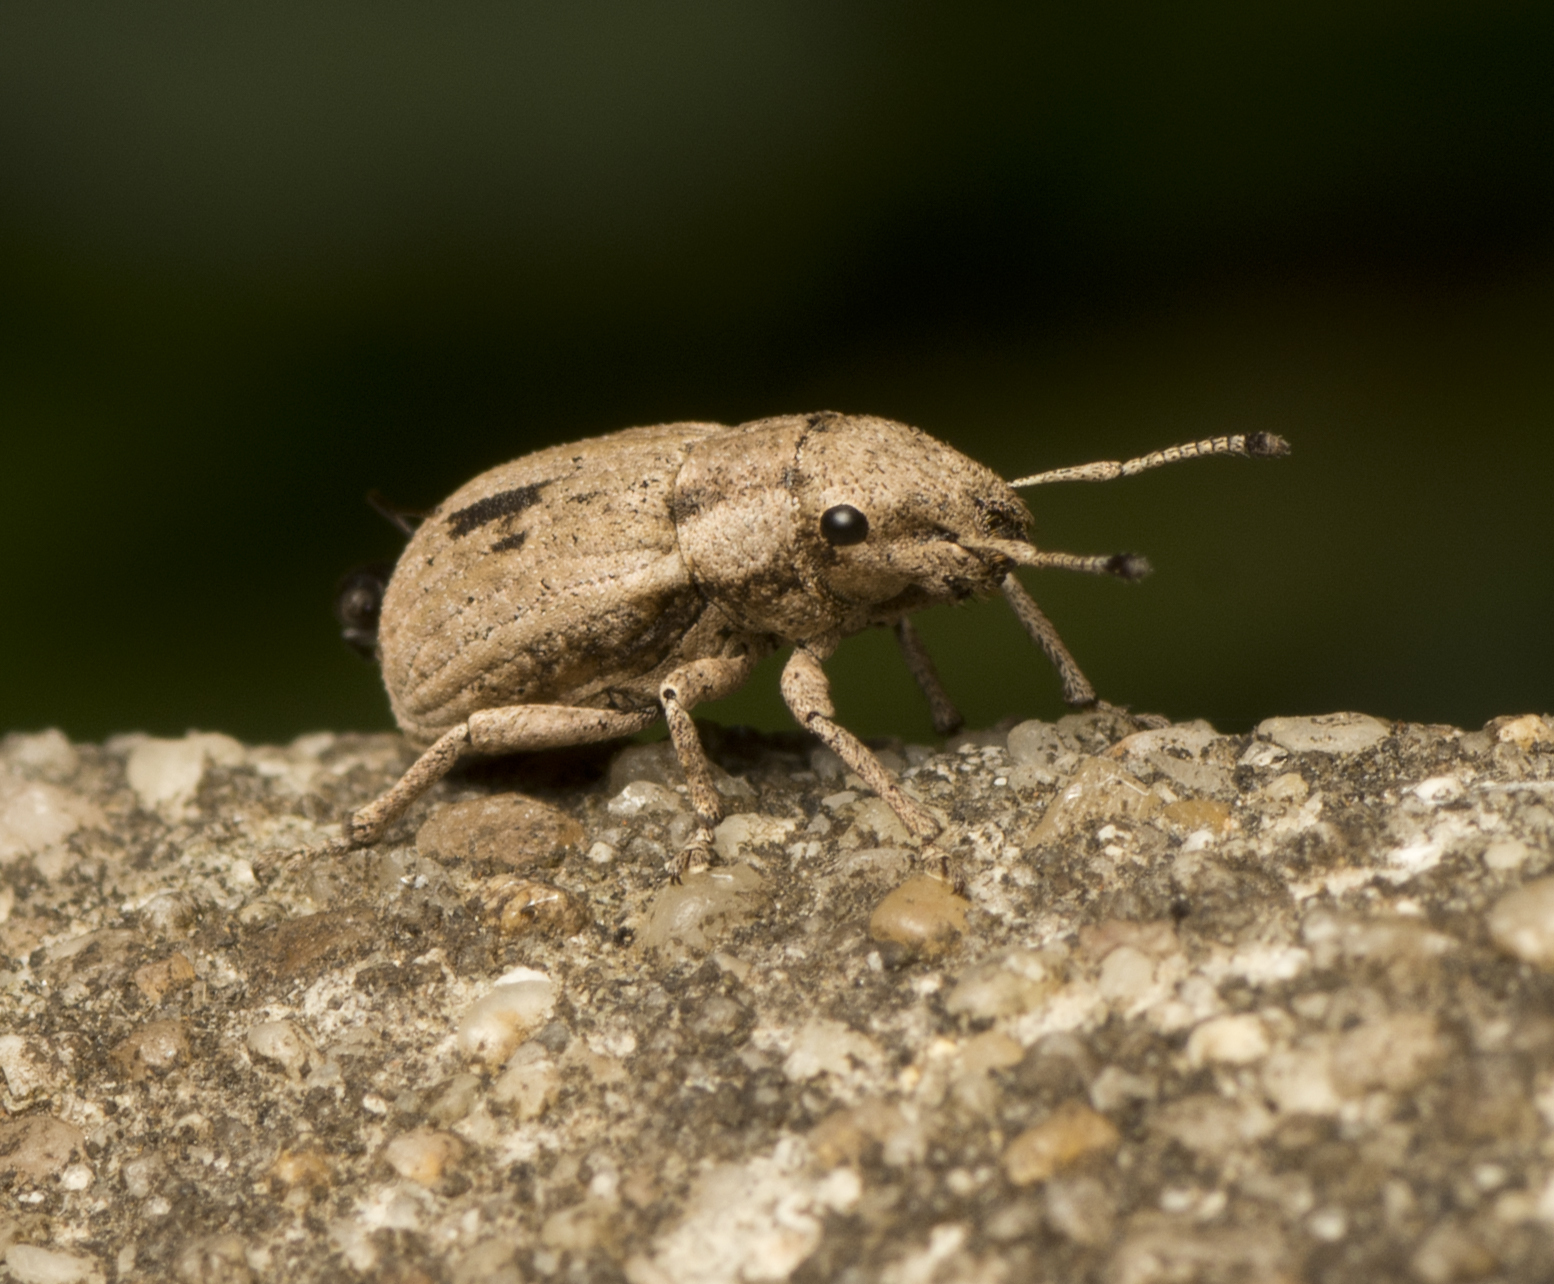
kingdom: Animalia
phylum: Arthropoda
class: Insecta
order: Coleoptera
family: Curculionidae
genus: Eurymetopus
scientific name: Eurymetopus birabeni
